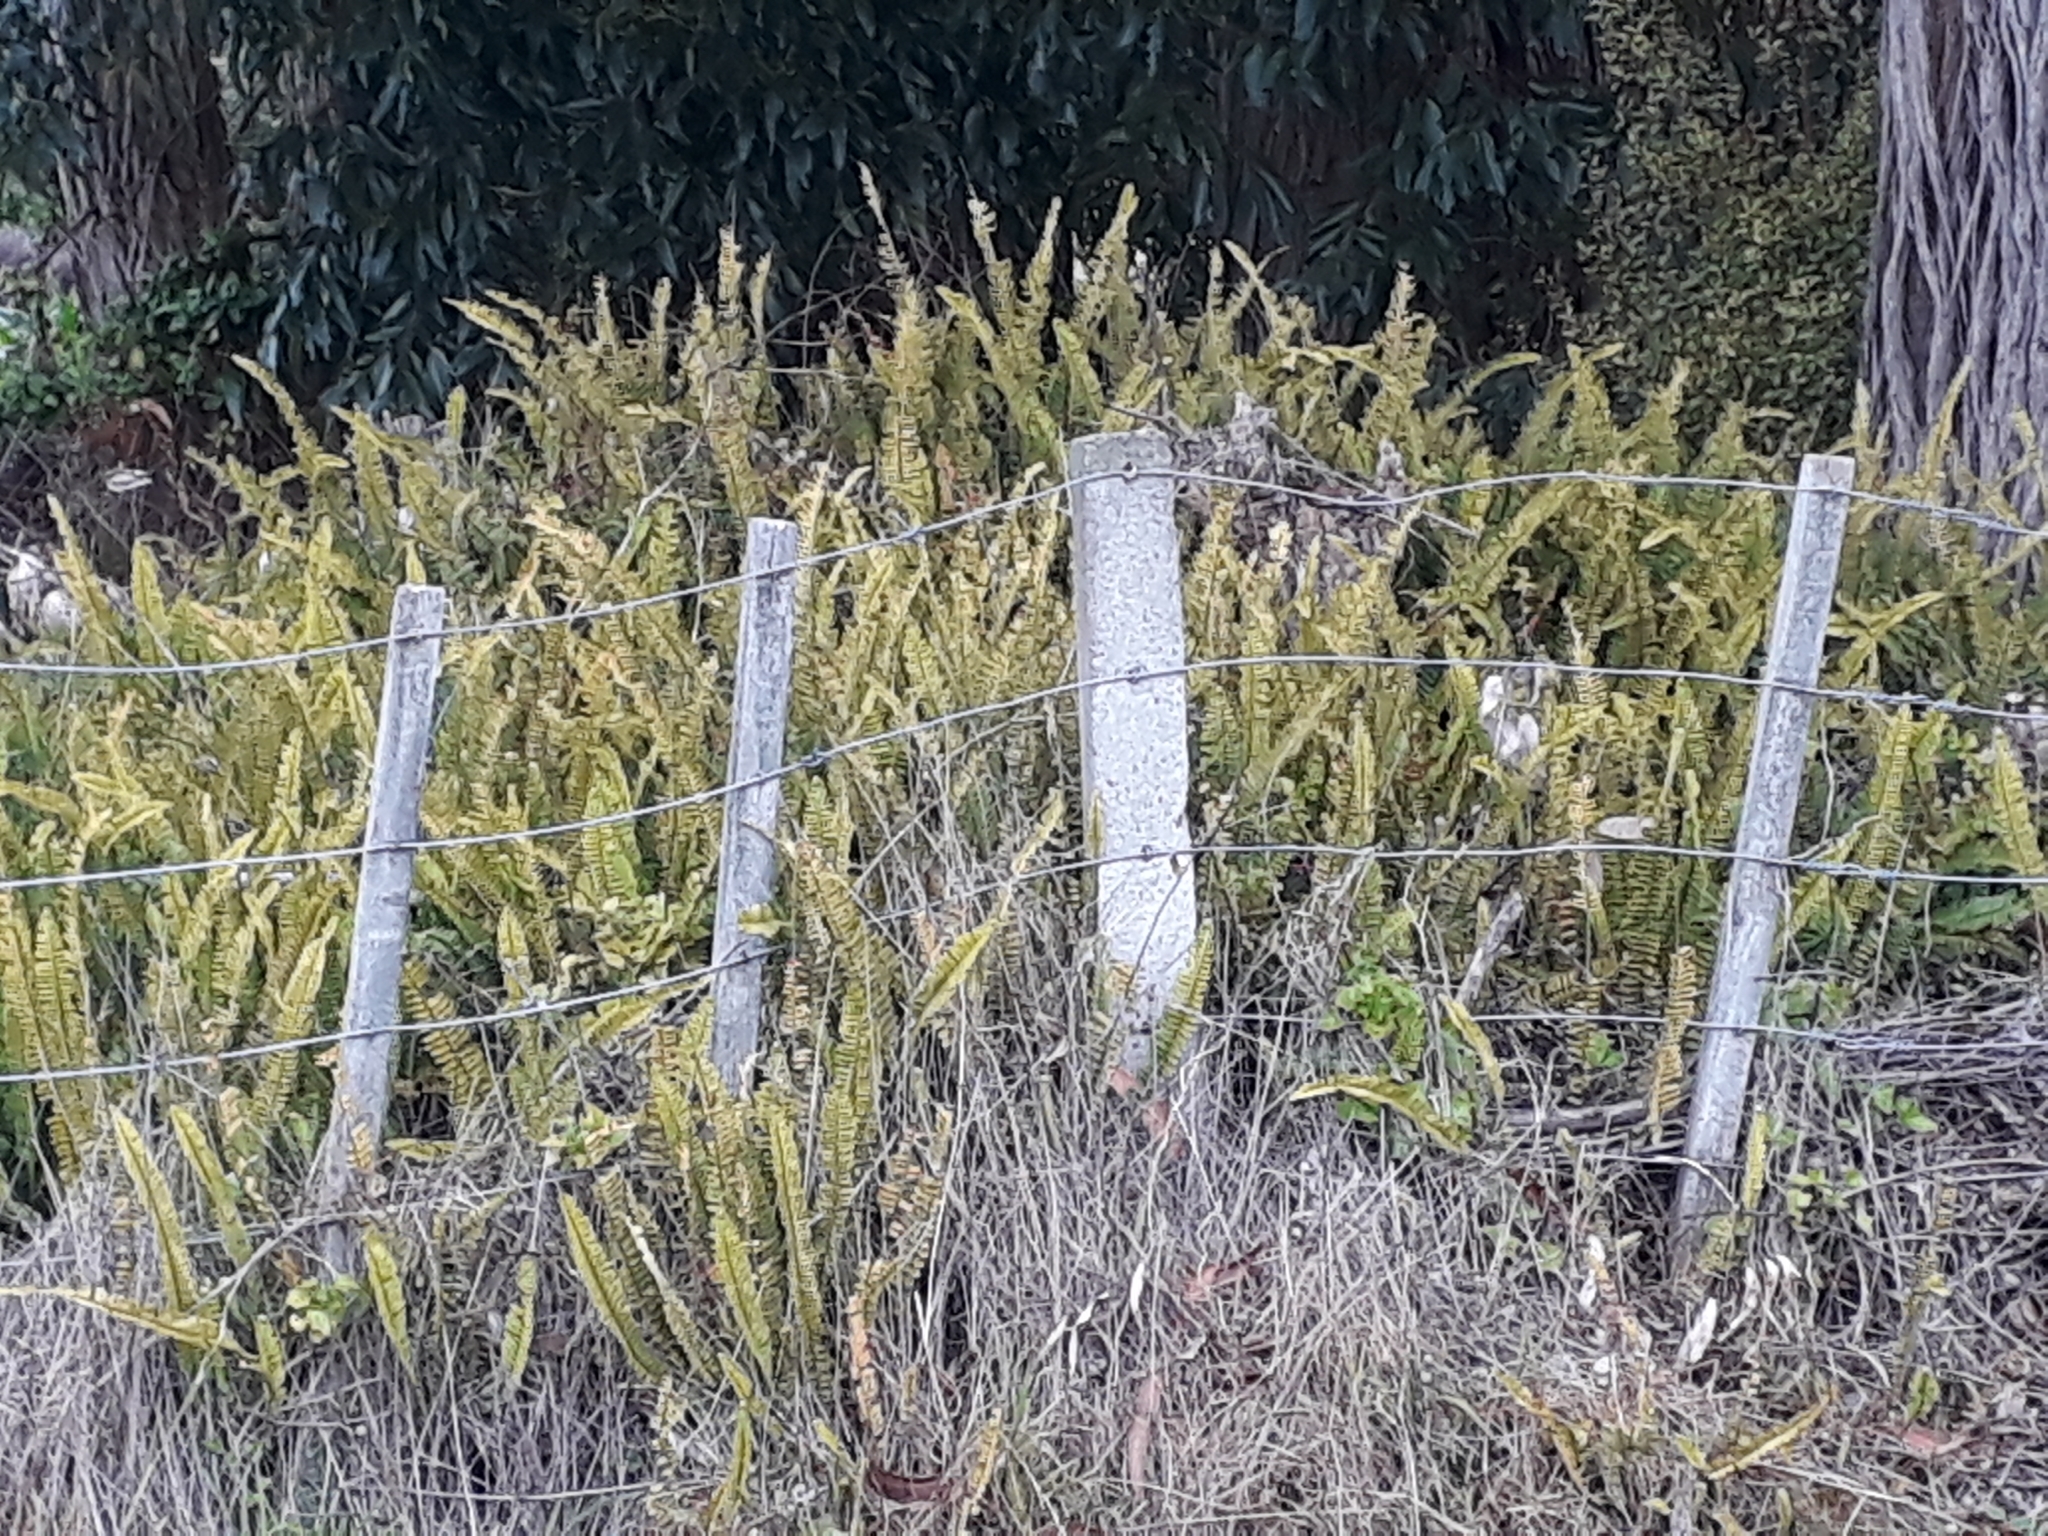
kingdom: Plantae
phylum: Tracheophyta
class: Polypodiopsida
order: Polypodiales
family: Nephrolepidaceae
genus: Nephrolepis
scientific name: Nephrolepis cordifolia
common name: Narrow swordfern
